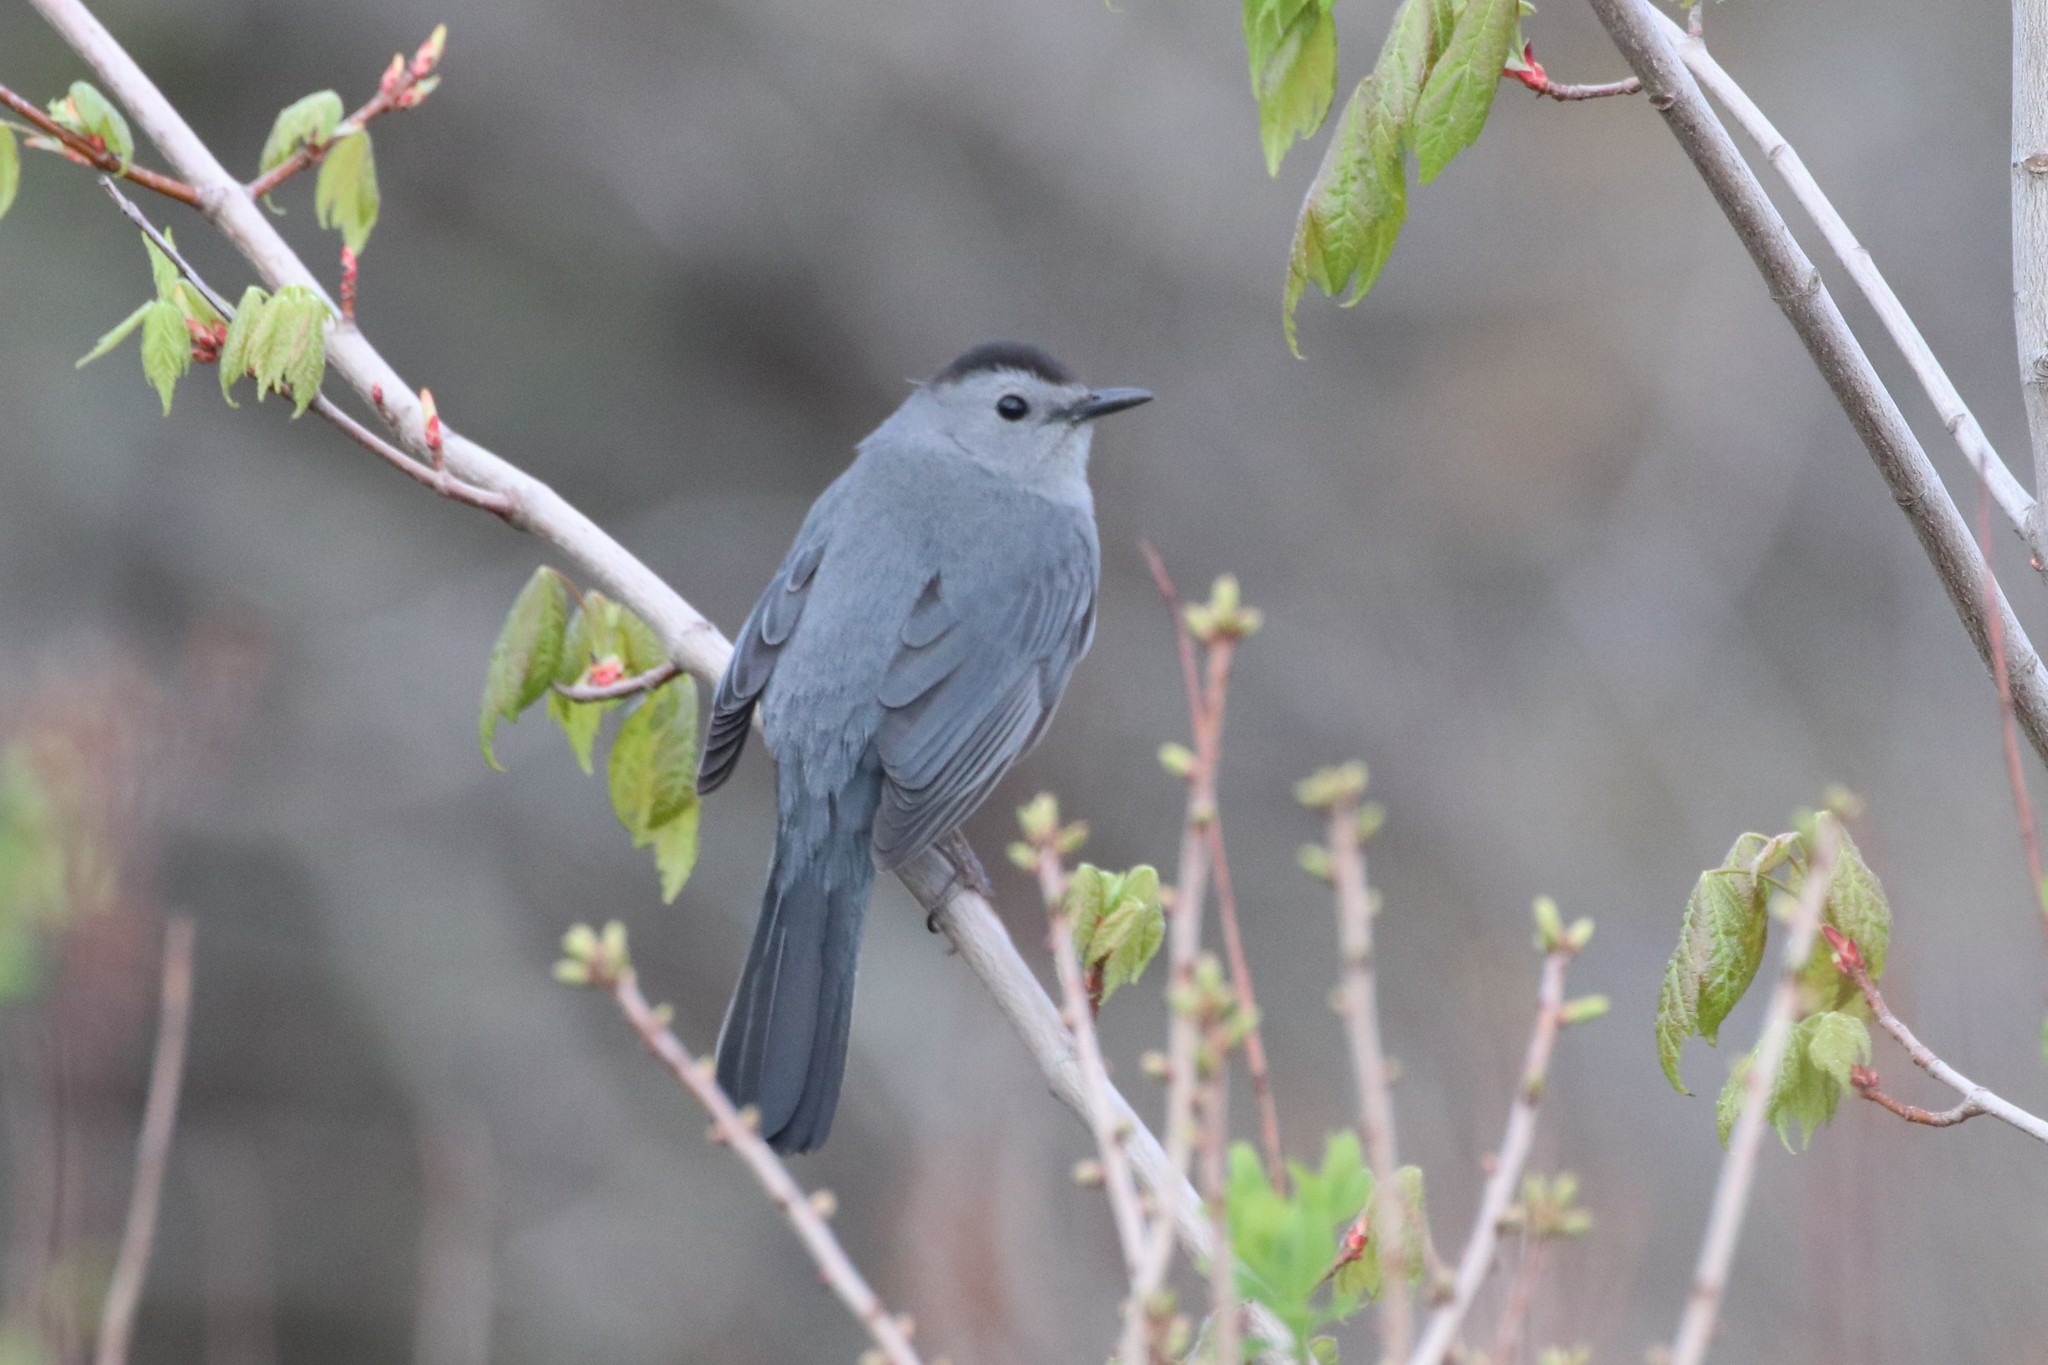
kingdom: Animalia
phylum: Chordata
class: Aves
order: Passeriformes
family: Mimidae
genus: Dumetella
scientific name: Dumetella carolinensis
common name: Gray catbird
